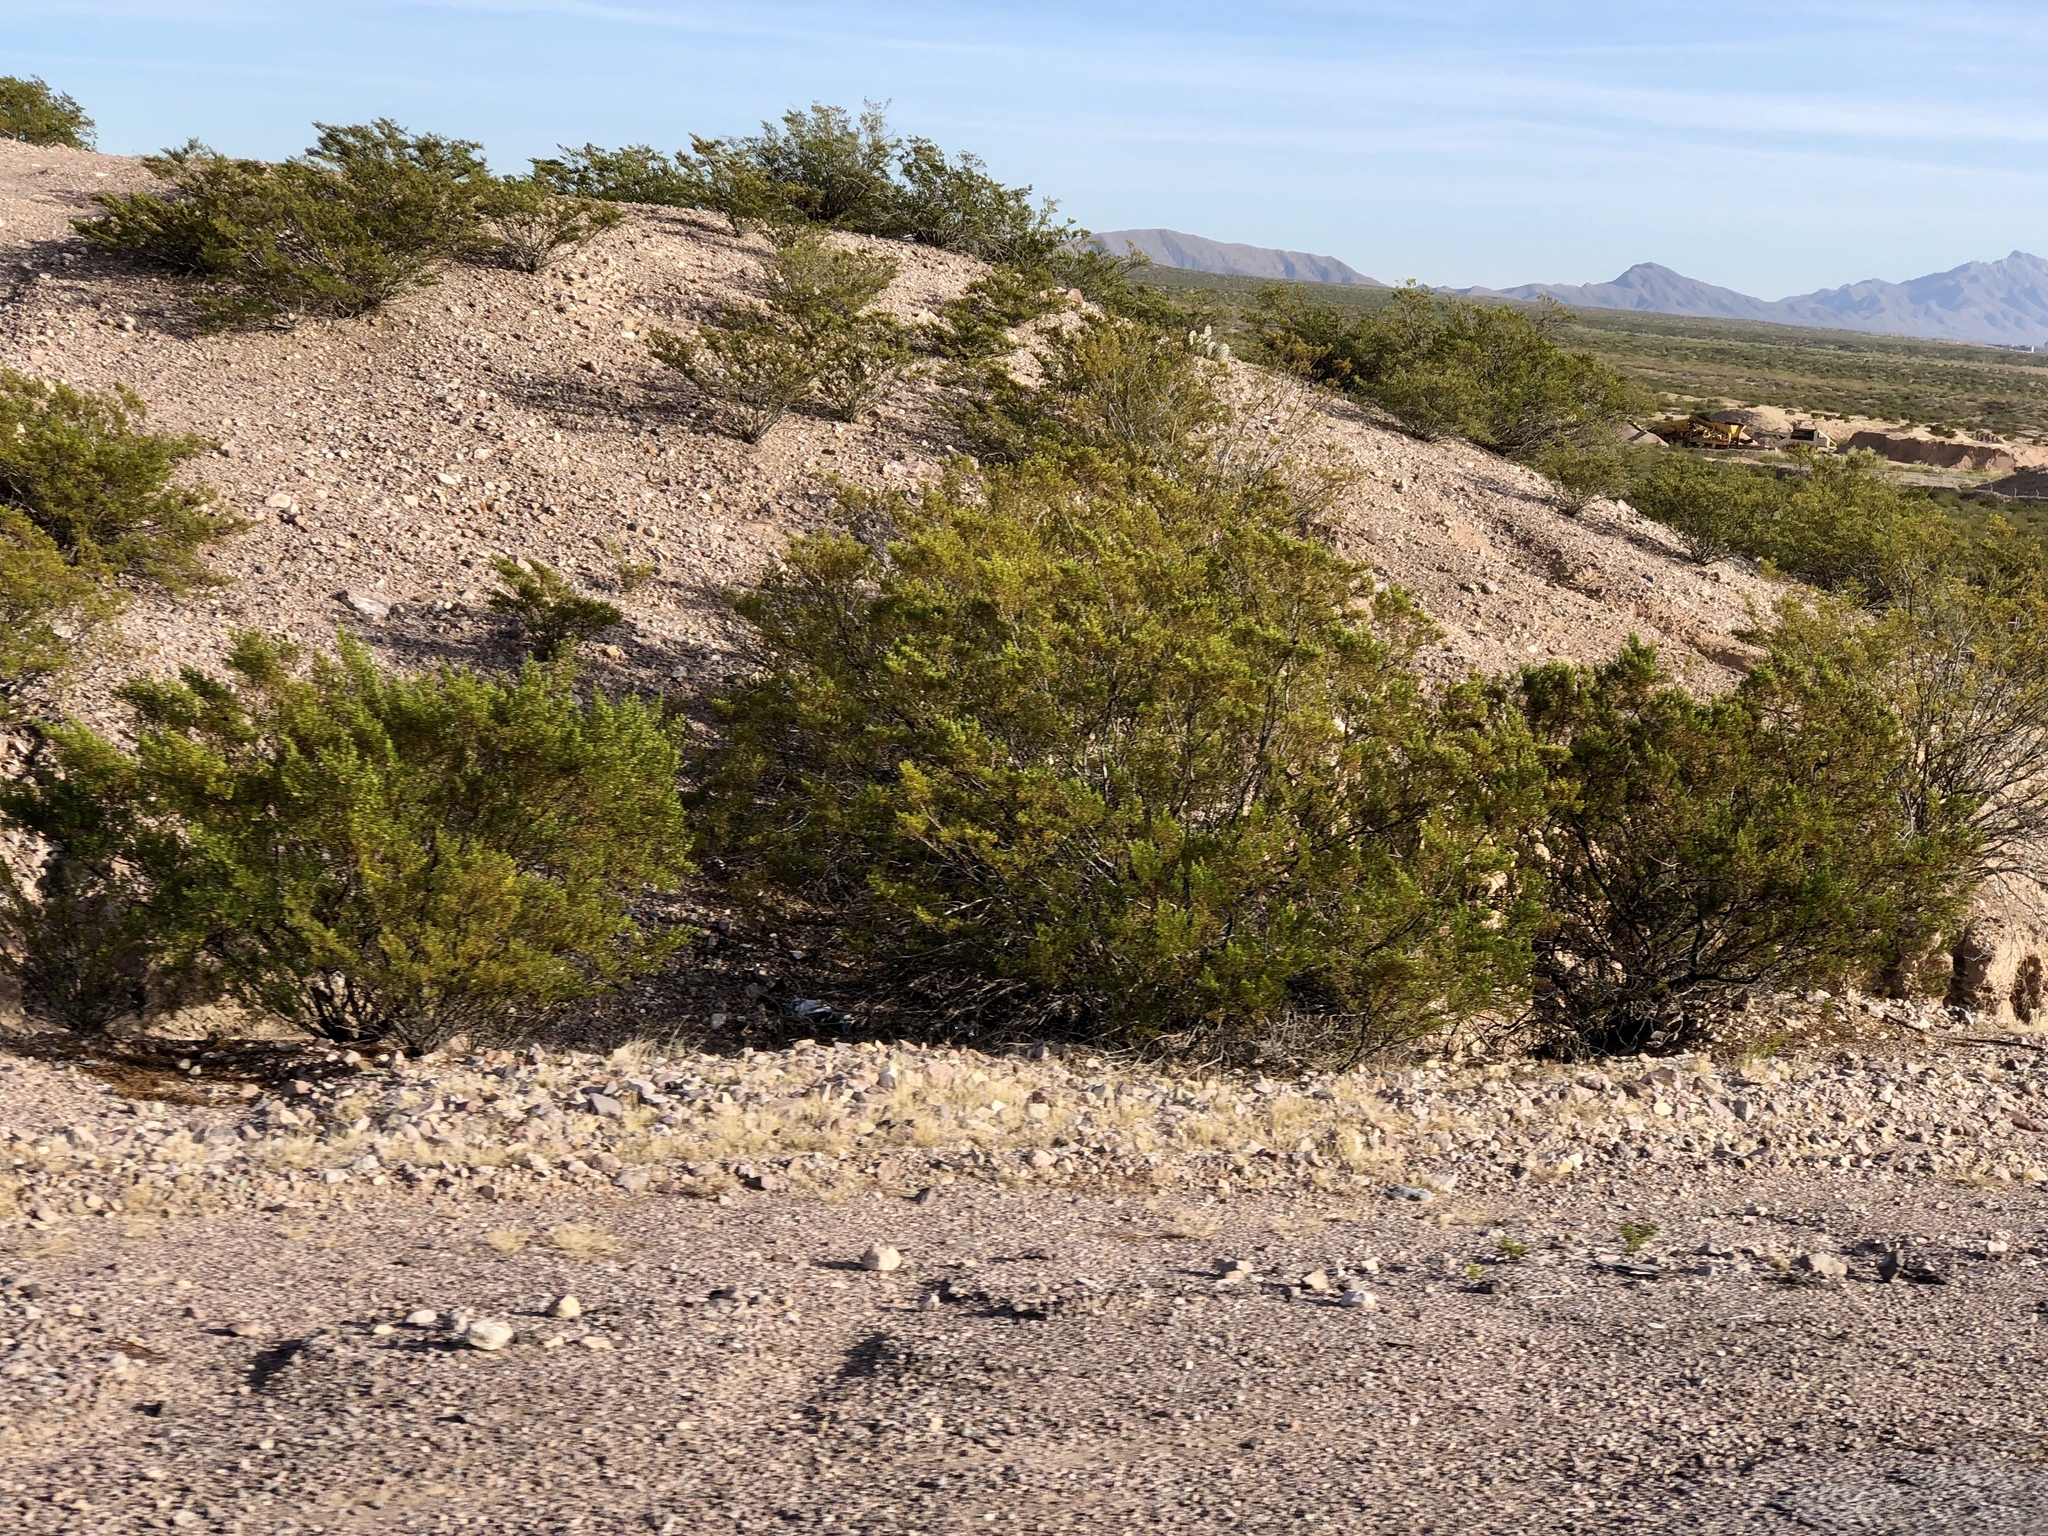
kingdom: Plantae
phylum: Tracheophyta
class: Magnoliopsida
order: Zygophyllales
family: Zygophyllaceae
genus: Larrea
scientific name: Larrea tridentata
